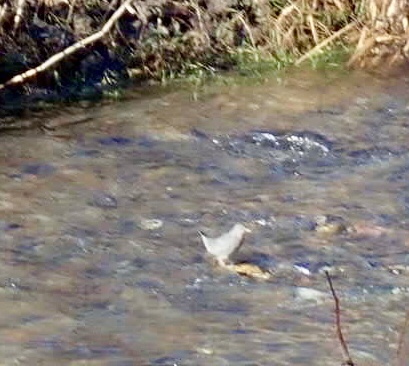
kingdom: Animalia
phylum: Chordata
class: Aves
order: Passeriformes
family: Cinclidae
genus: Cinclus
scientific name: Cinclus mexicanus
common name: American dipper
